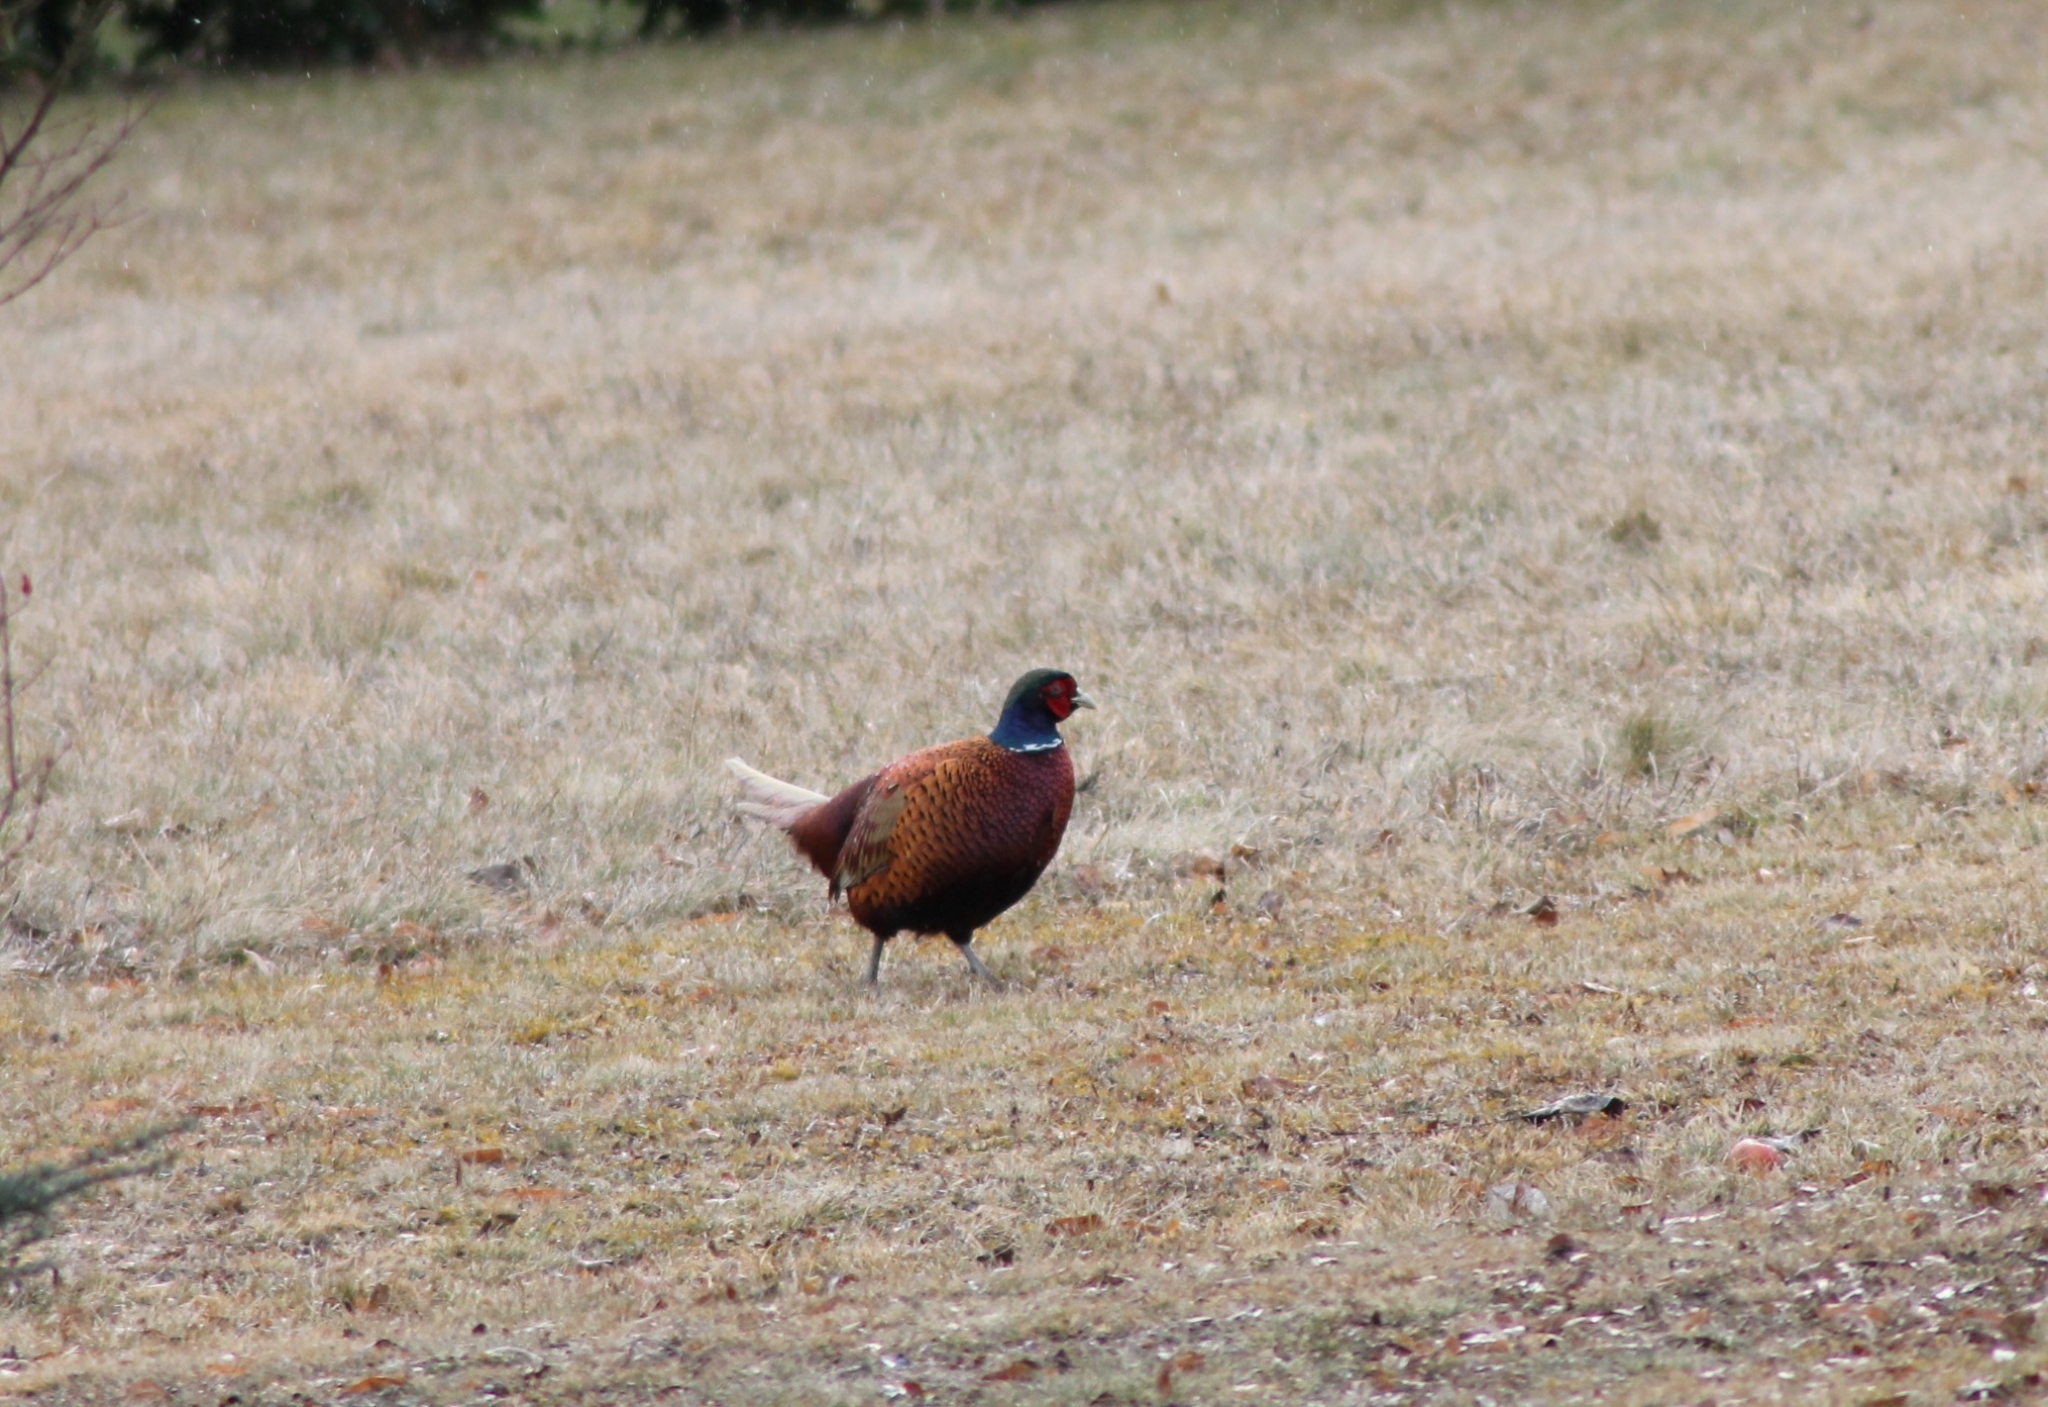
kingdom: Animalia
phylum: Chordata
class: Aves
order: Galliformes
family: Phasianidae
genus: Phasianus
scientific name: Phasianus colchicus
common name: Common pheasant
